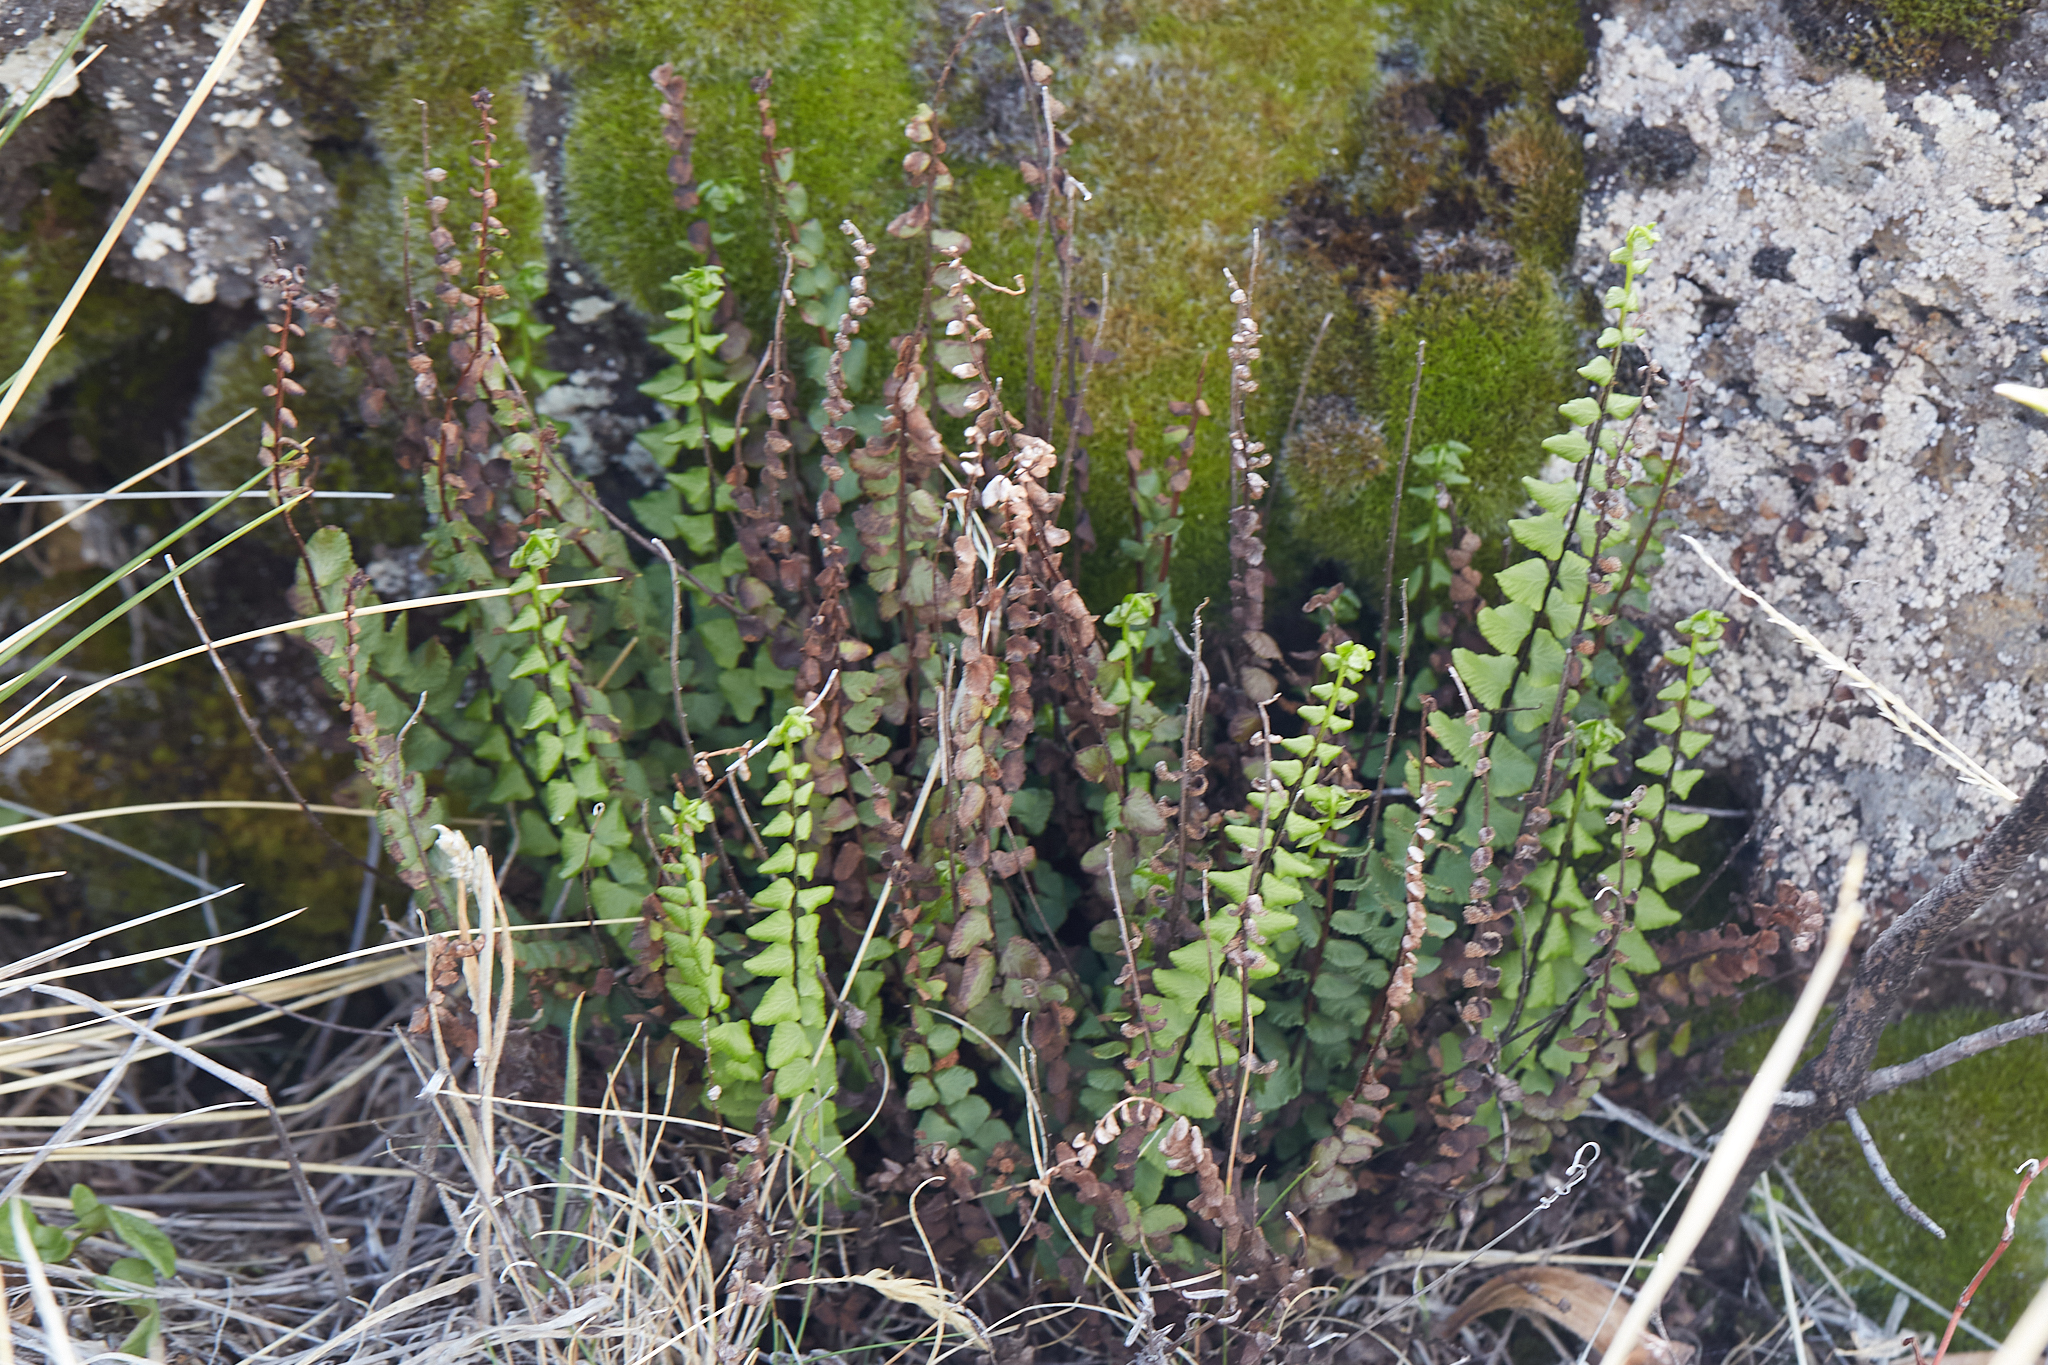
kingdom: Plantae
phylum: Tracheophyta
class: Polypodiopsida
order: Polypodiales
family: Aspleniaceae
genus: Asplenium
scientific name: Asplenium trichomanes
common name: Maidenhair spleenwort
